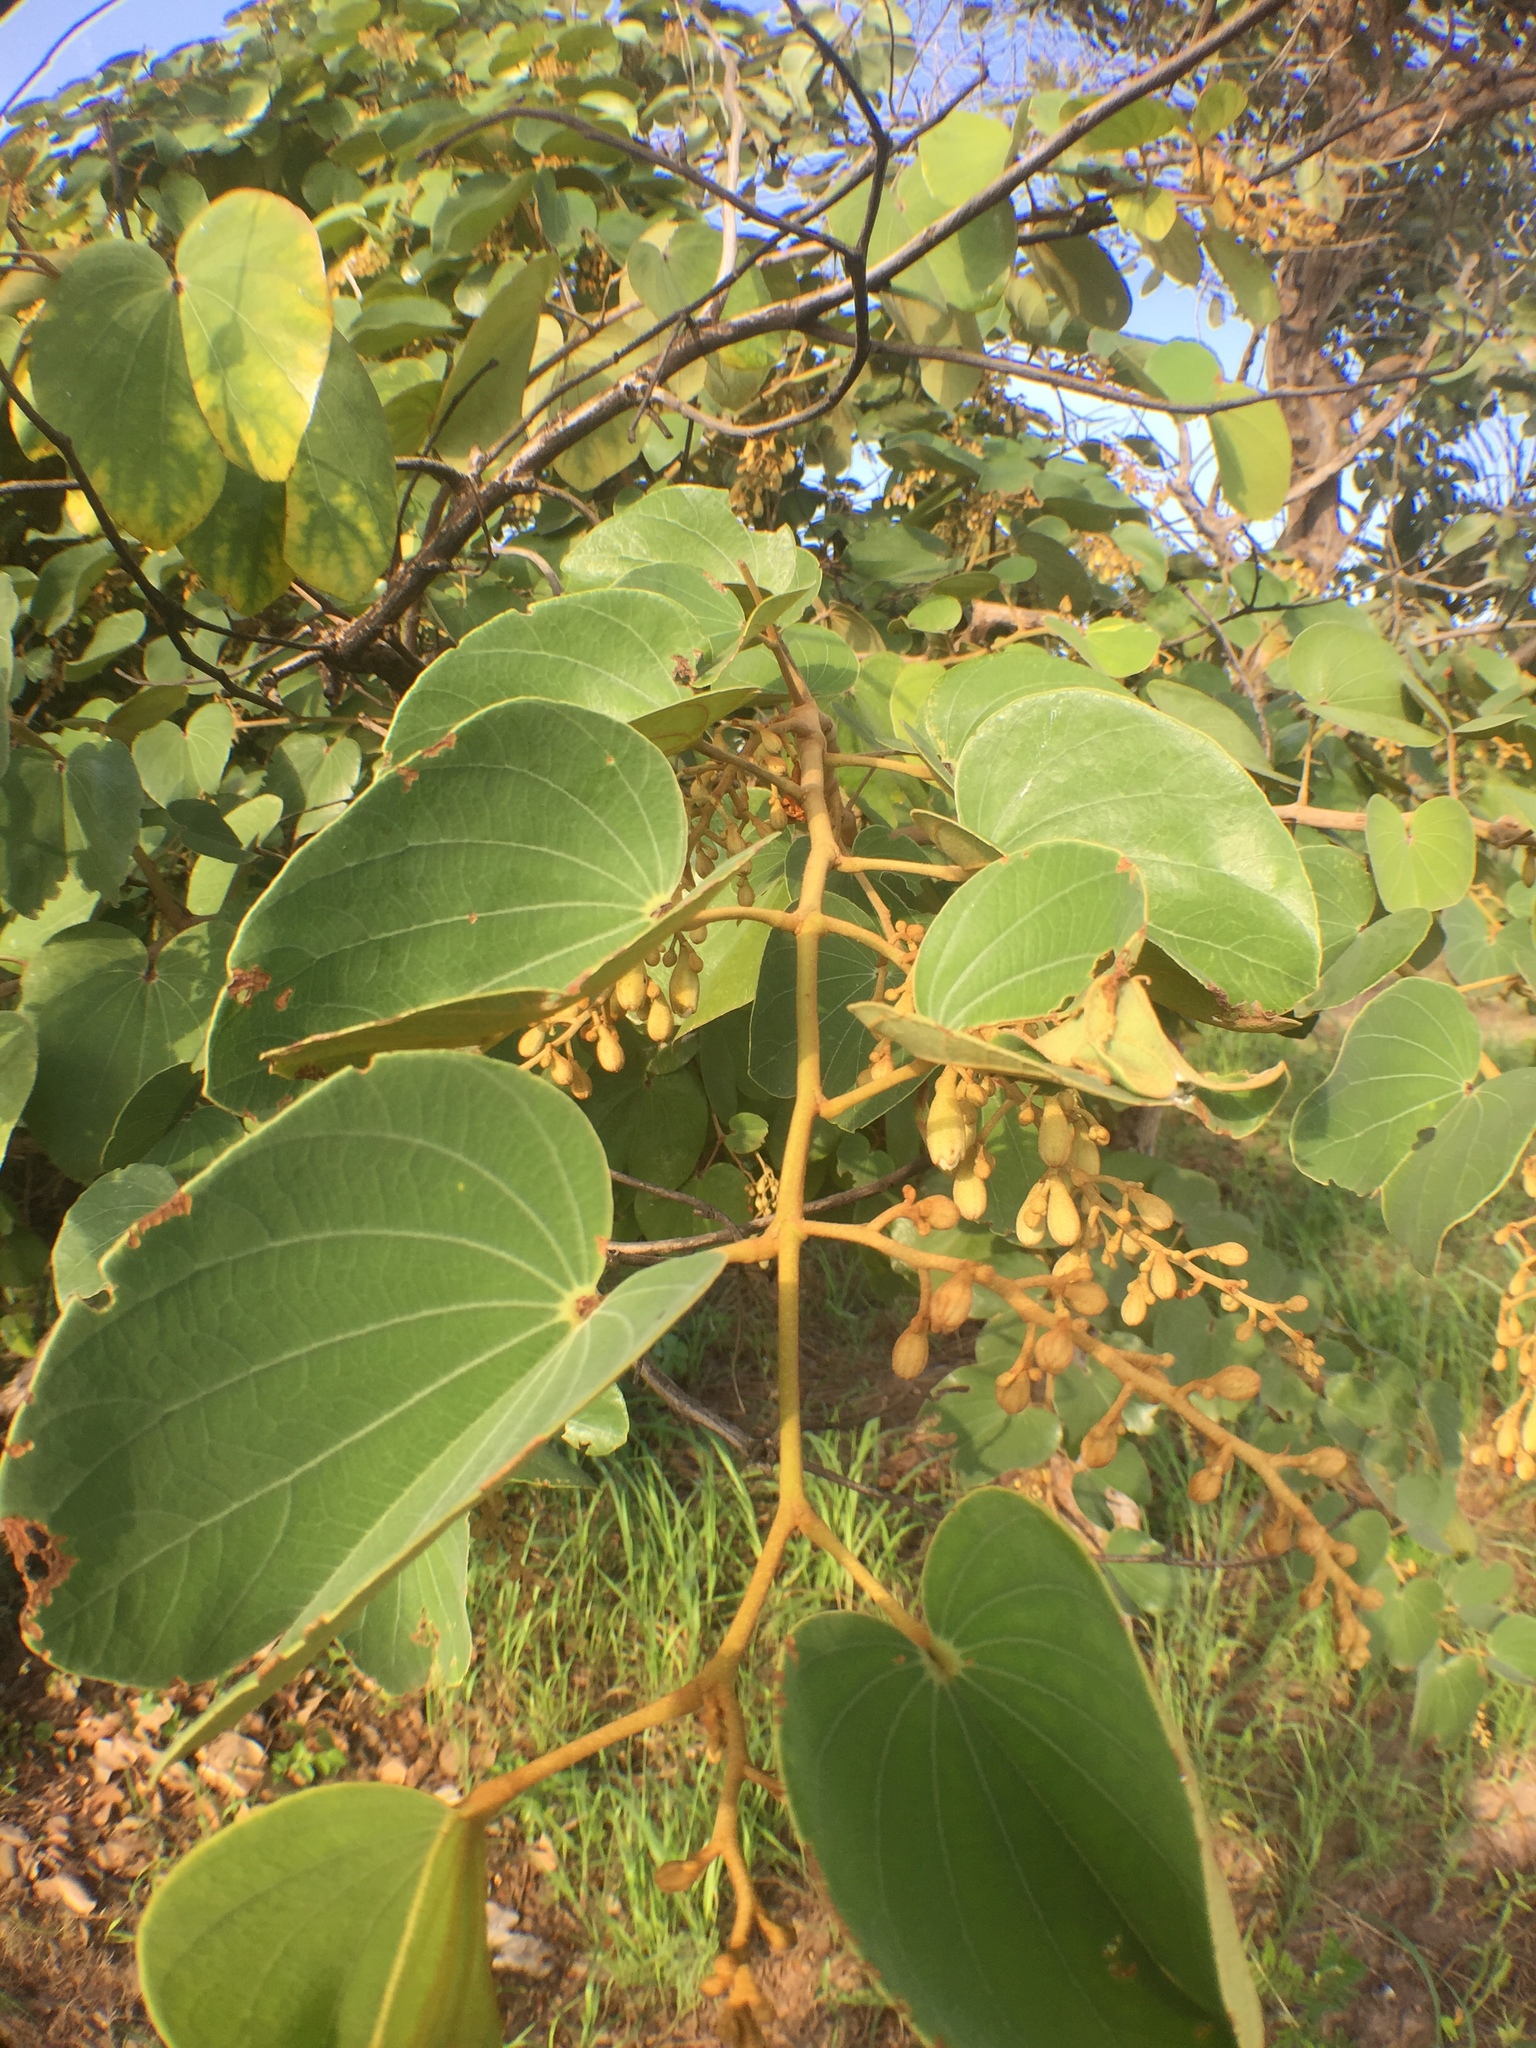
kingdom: Plantae
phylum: Tracheophyta
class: Magnoliopsida
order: Fabales
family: Fabaceae
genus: Piliostigma
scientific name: Piliostigma thonningii
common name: Kao
